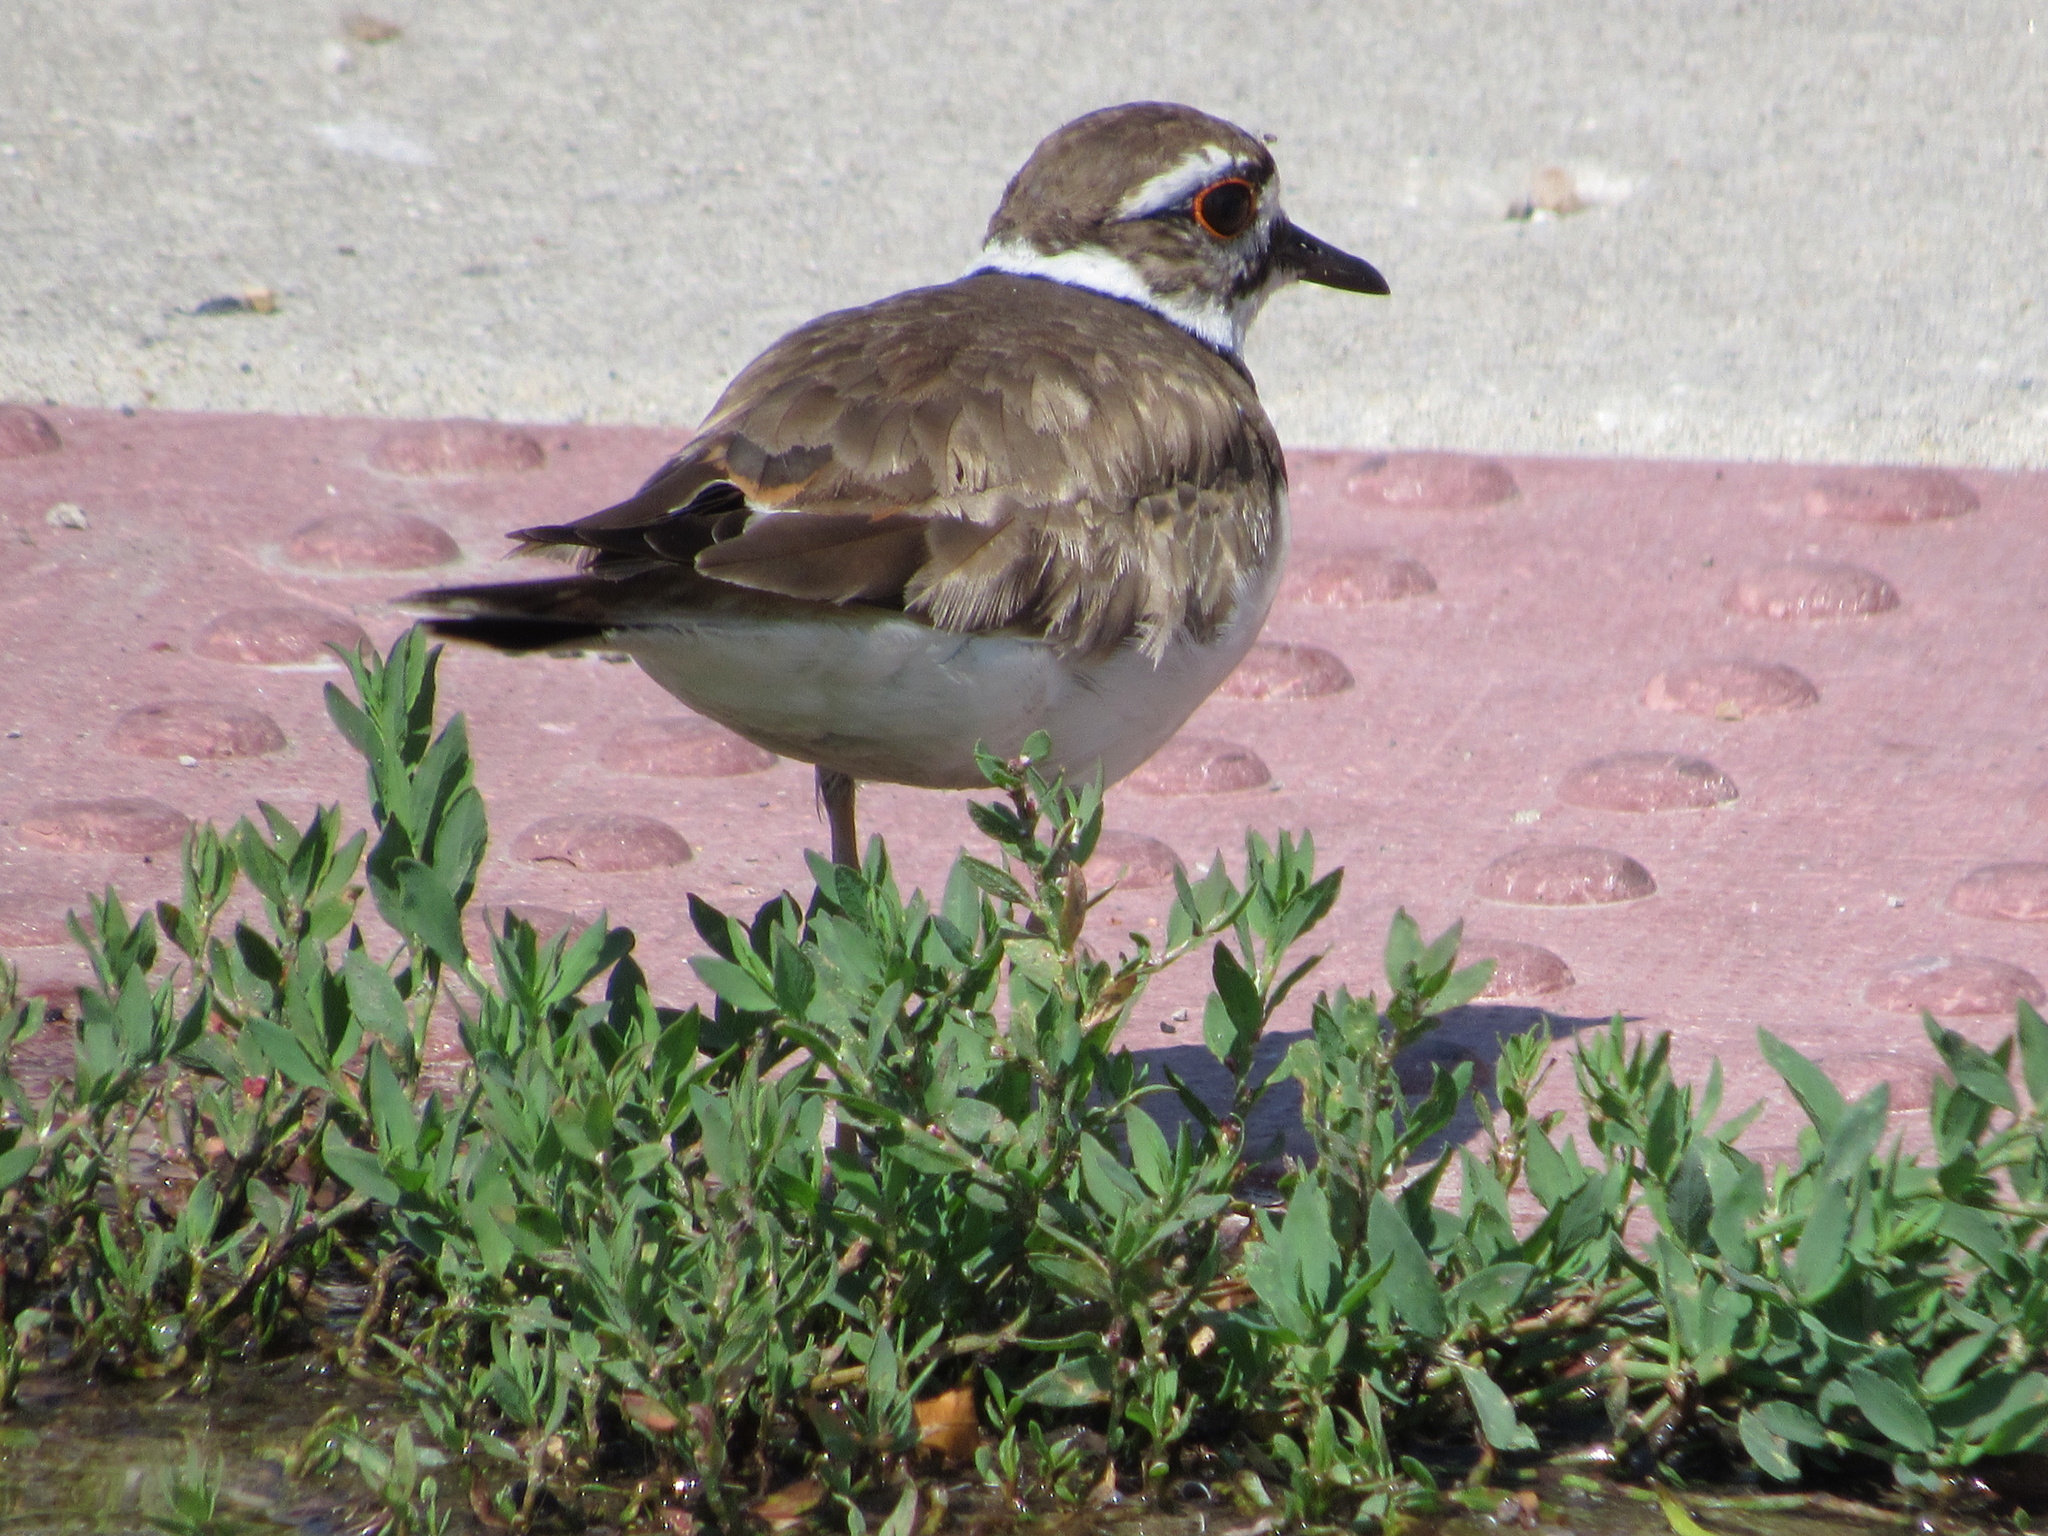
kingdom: Animalia
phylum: Chordata
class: Aves
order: Charadriiformes
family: Charadriidae
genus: Charadrius
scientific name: Charadrius vociferus
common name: Killdeer
